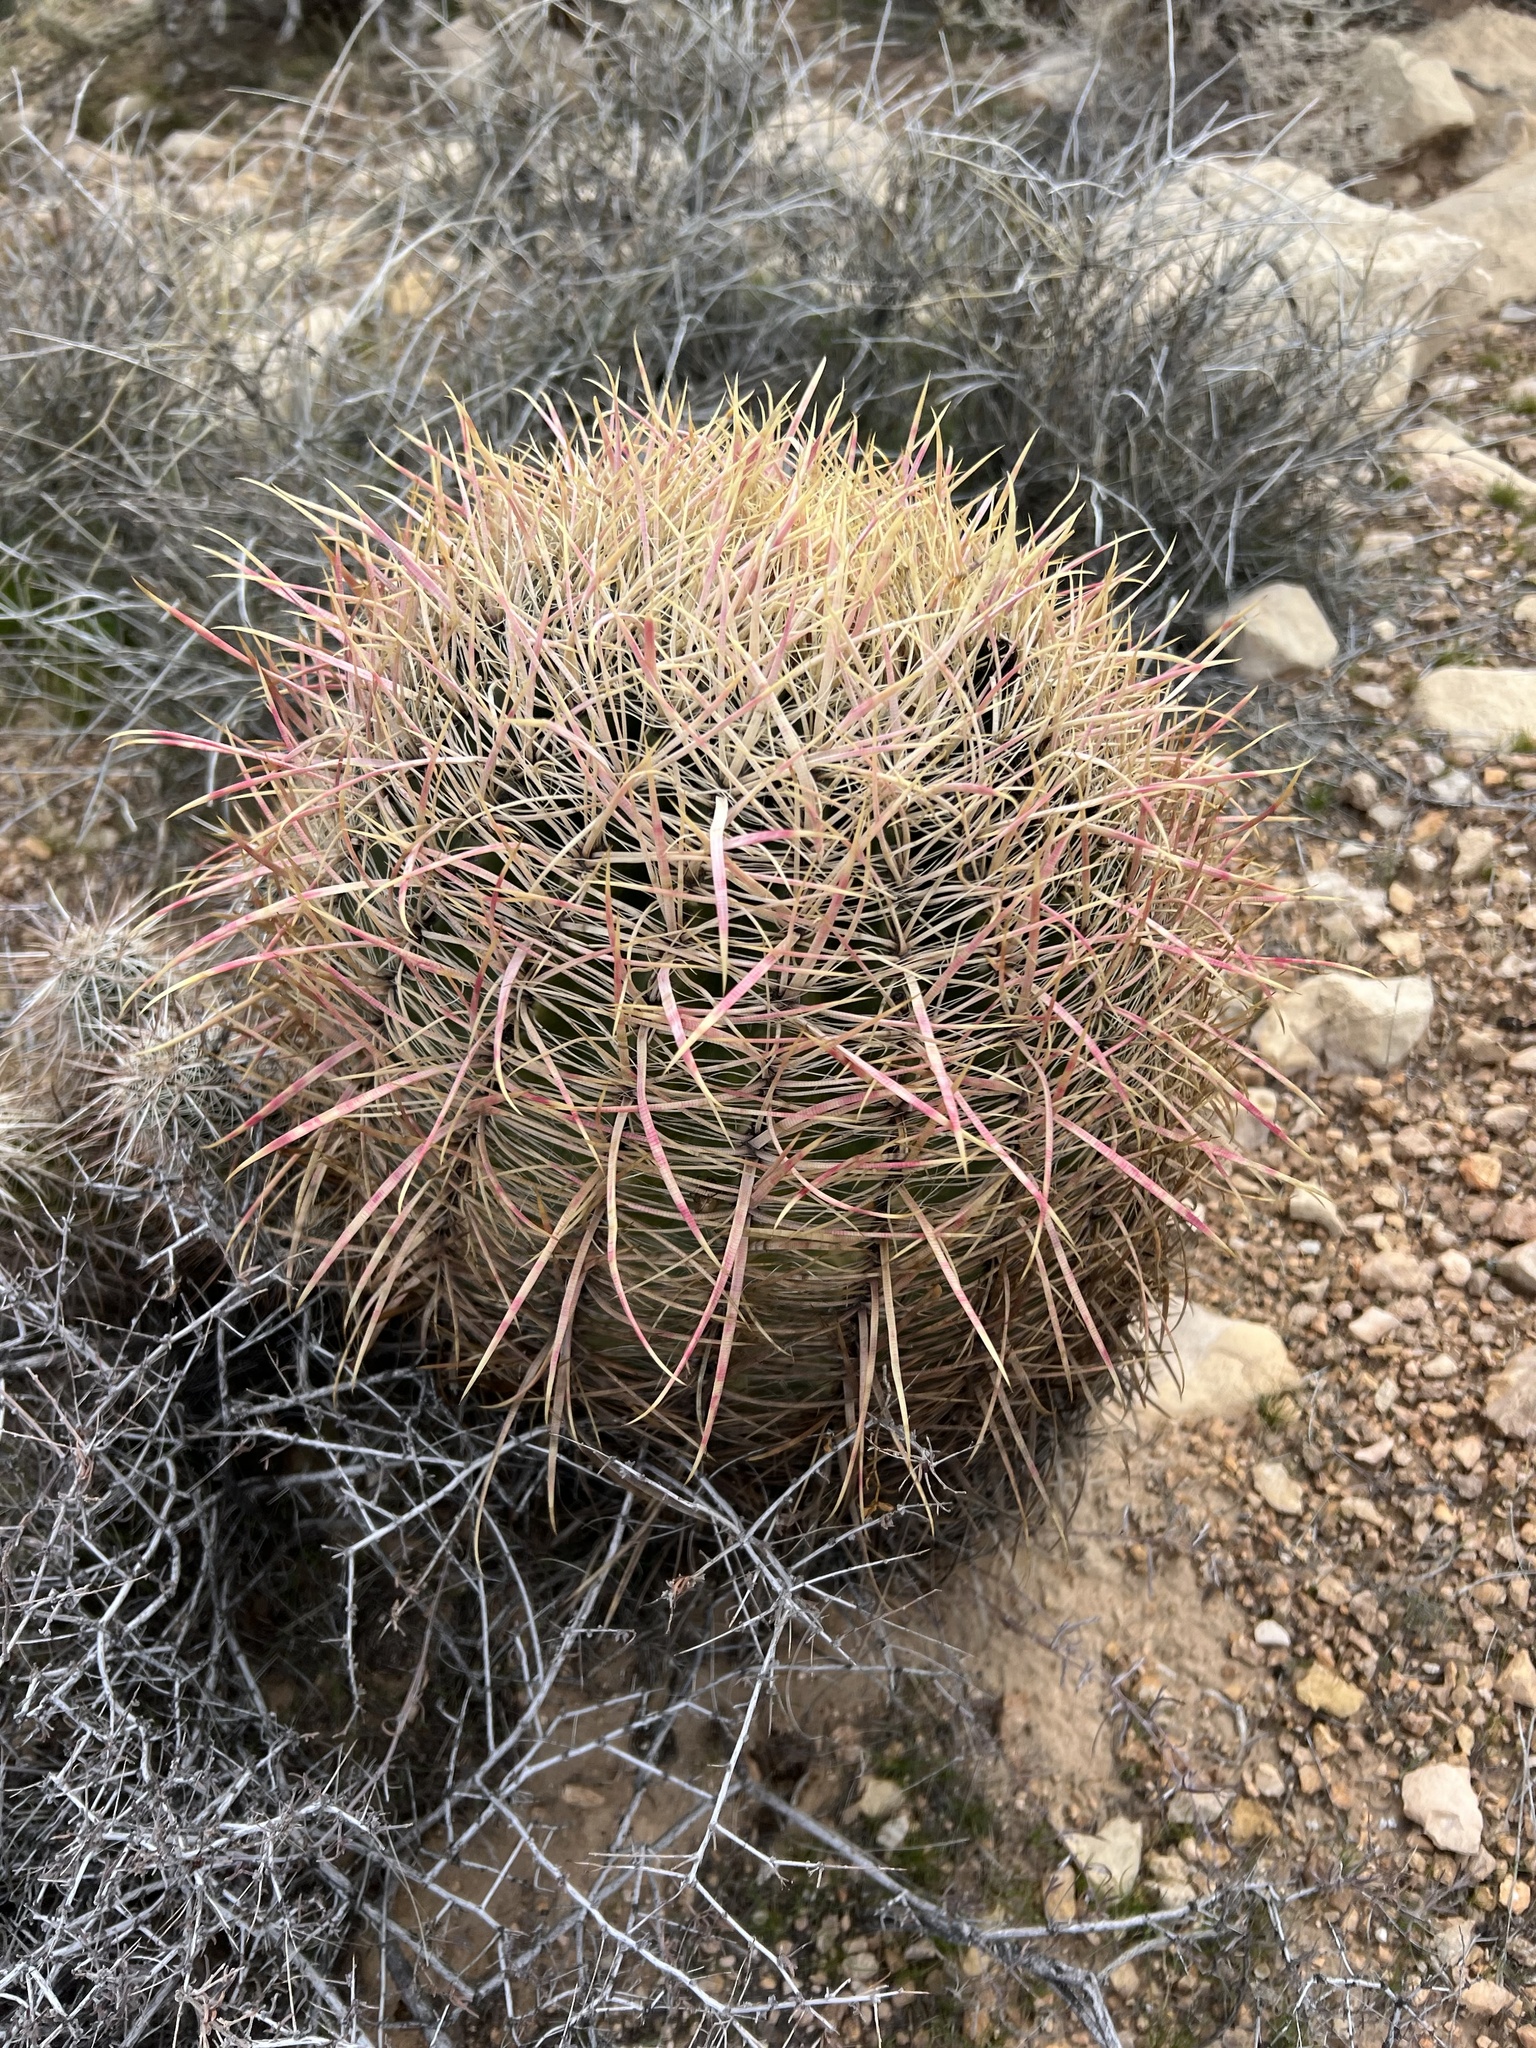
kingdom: Plantae
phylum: Tracheophyta
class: Magnoliopsida
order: Caryophyllales
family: Cactaceae
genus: Ferocactus
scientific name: Ferocactus cylindraceus
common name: California barrel cactus
